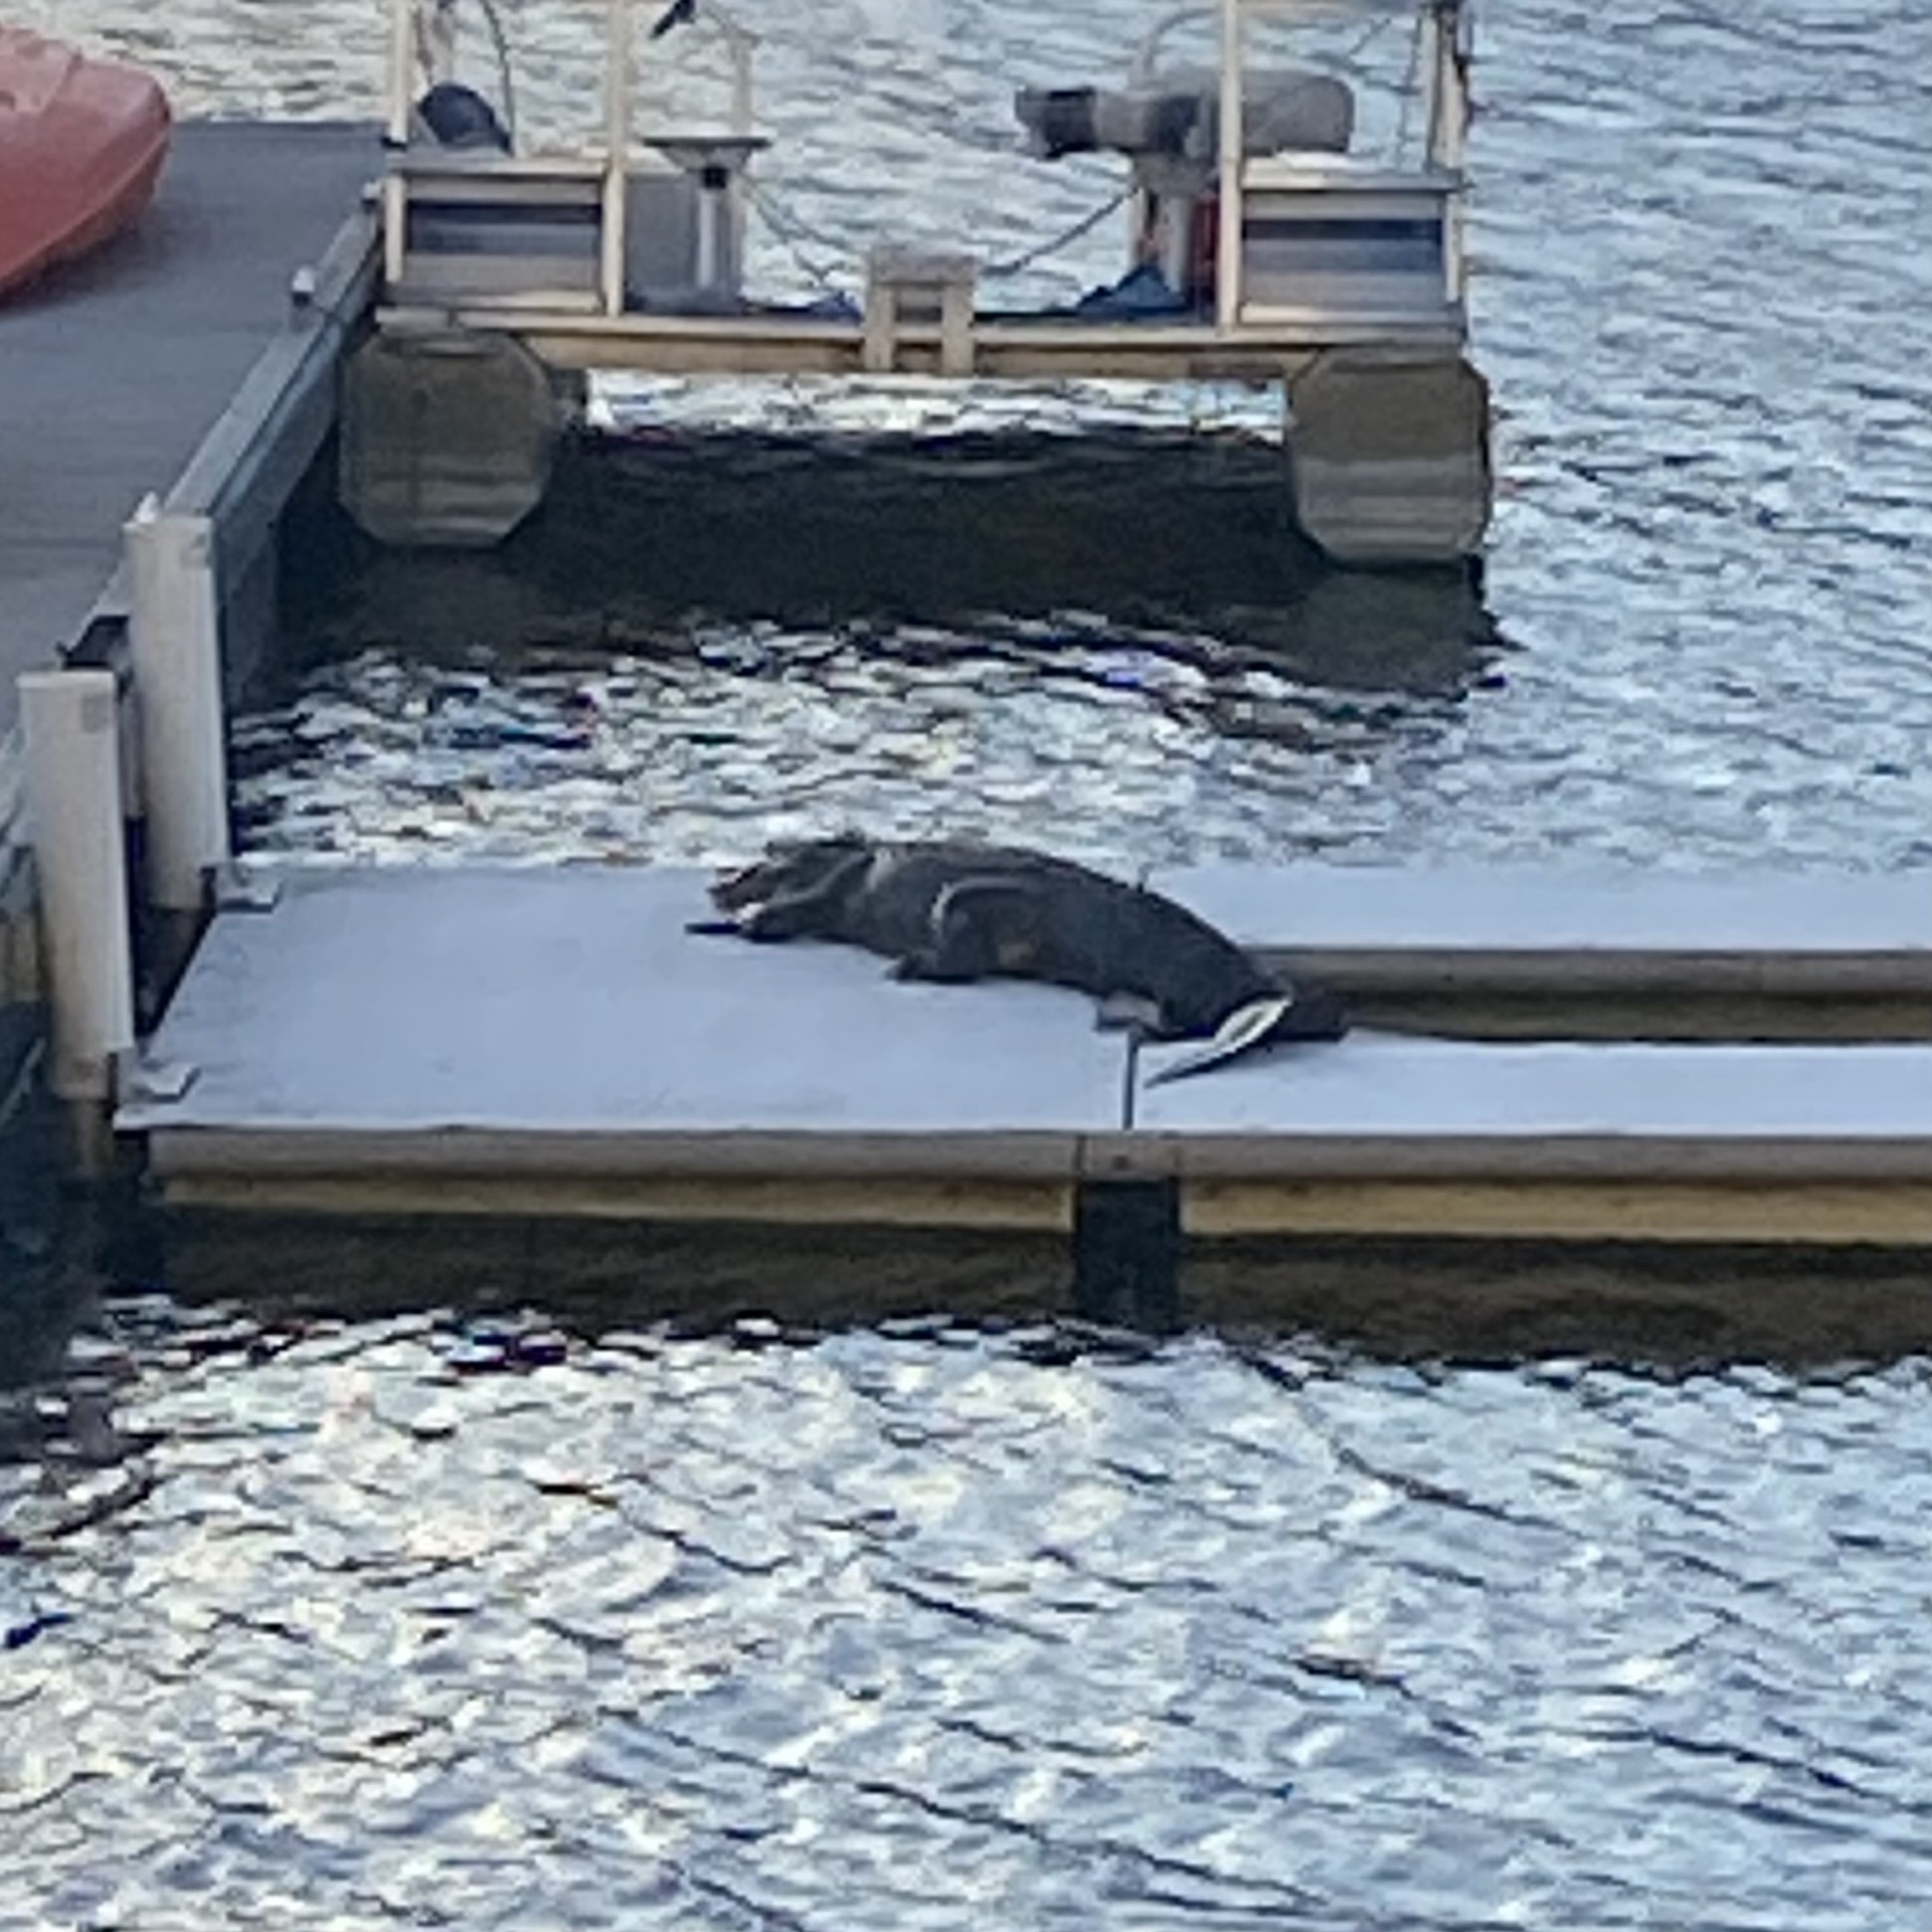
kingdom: Animalia
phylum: Chordata
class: Crocodylia
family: Alligatoridae
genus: Alligator
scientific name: Alligator mississippiensis
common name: American alligator
